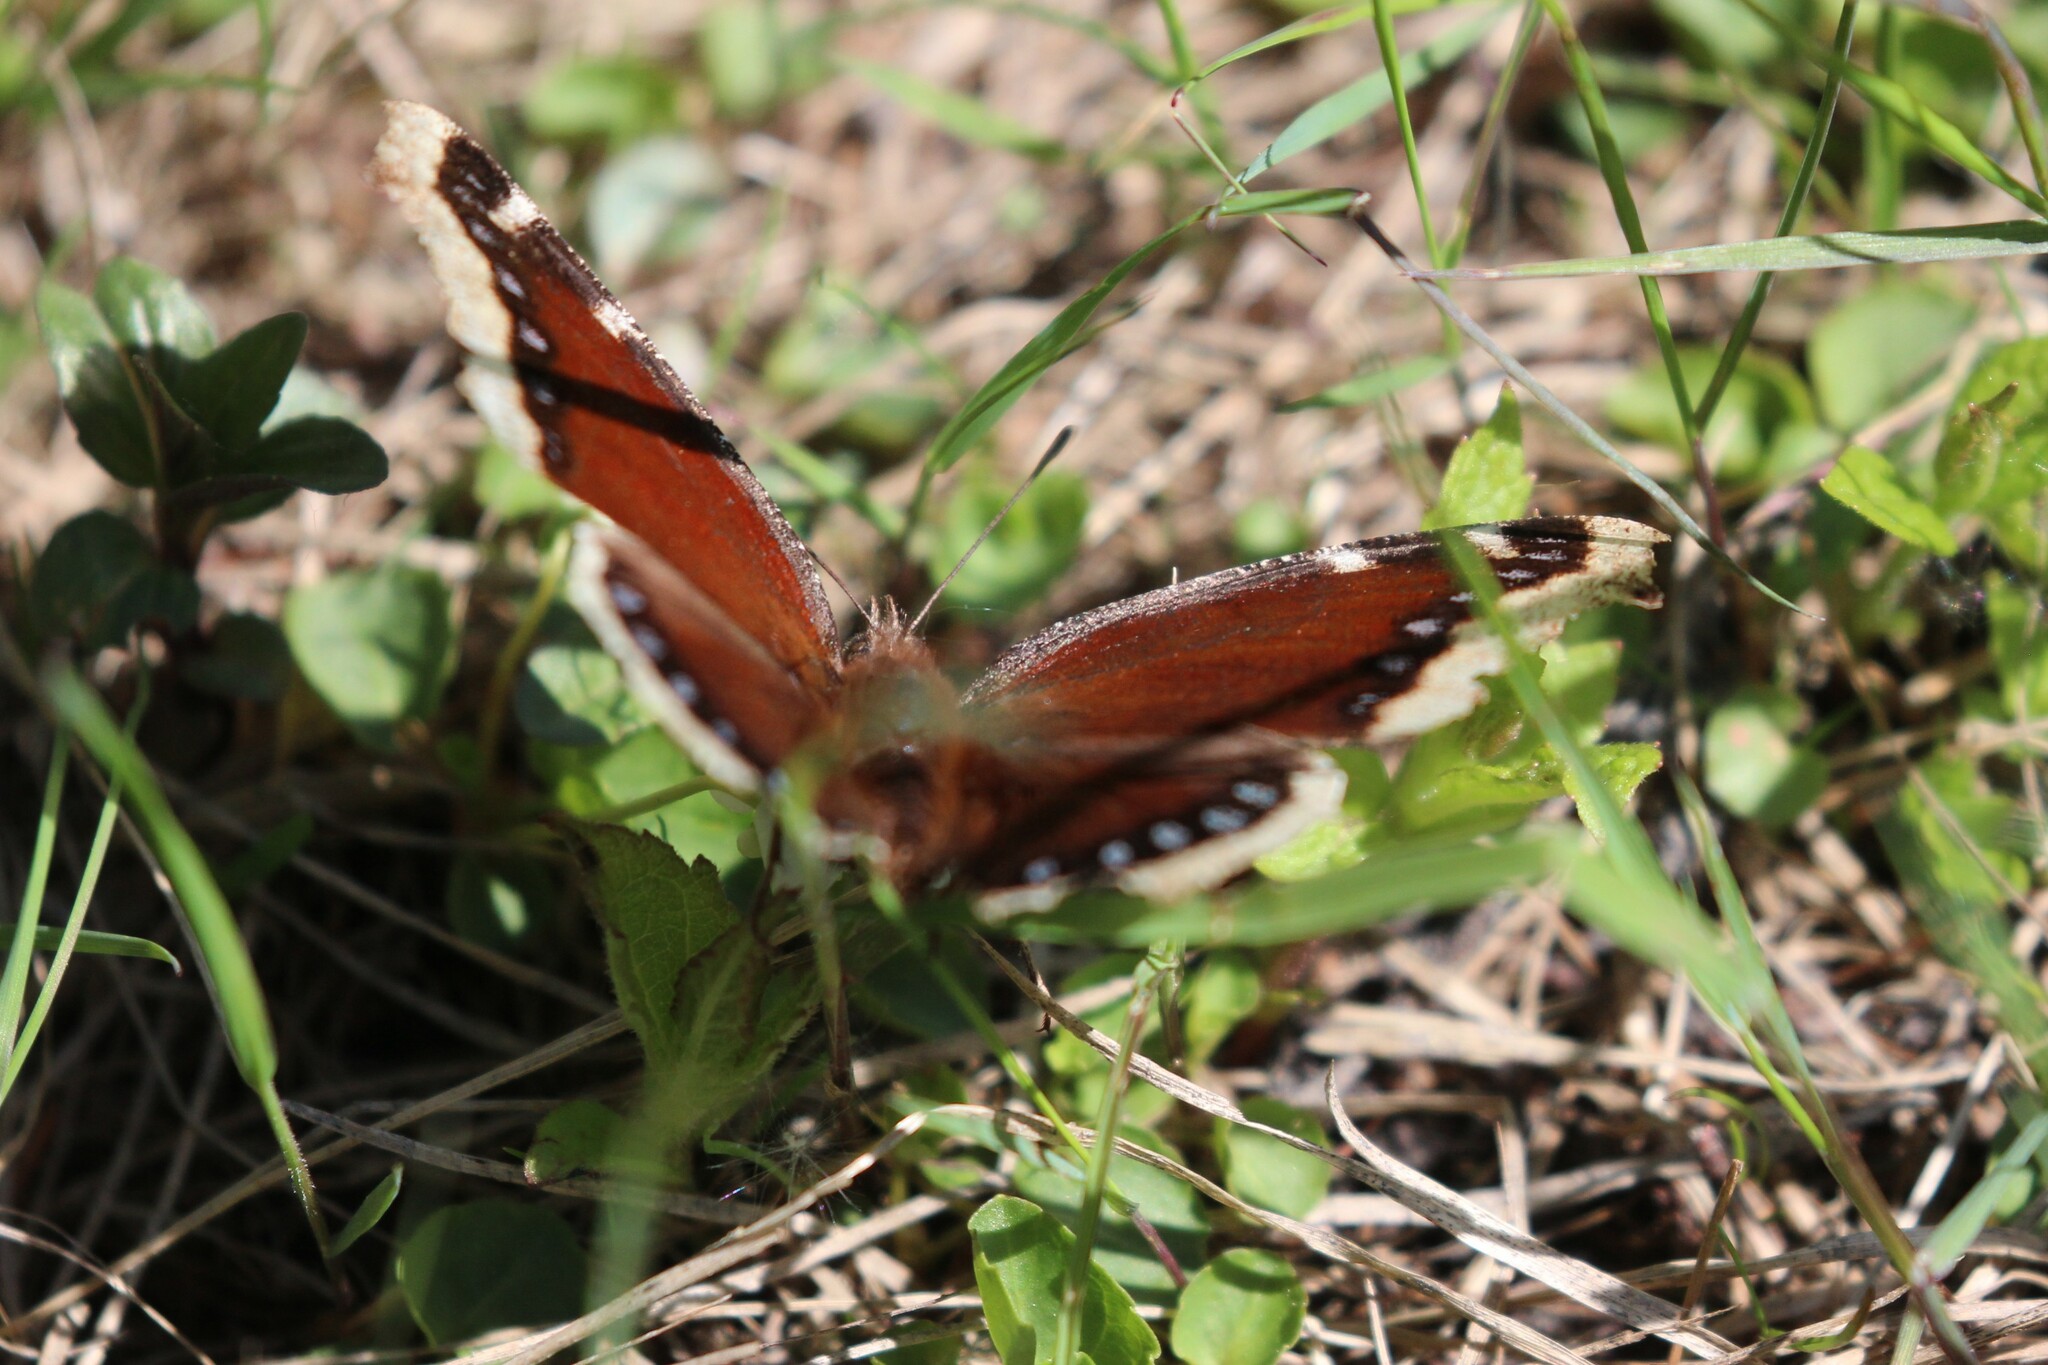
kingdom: Animalia
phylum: Arthropoda
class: Insecta
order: Lepidoptera
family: Nymphalidae
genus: Nymphalis
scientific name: Nymphalis antiopa
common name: Camberwell beauty
